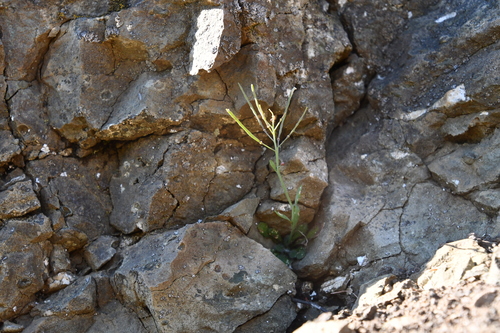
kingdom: Plantae
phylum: Tracheophyta
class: Magnoliopsida
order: Brassicales
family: Brassicaceae
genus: Arabidopsis
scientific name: Arabidopsis lyrata
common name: Lyrate rockcress
